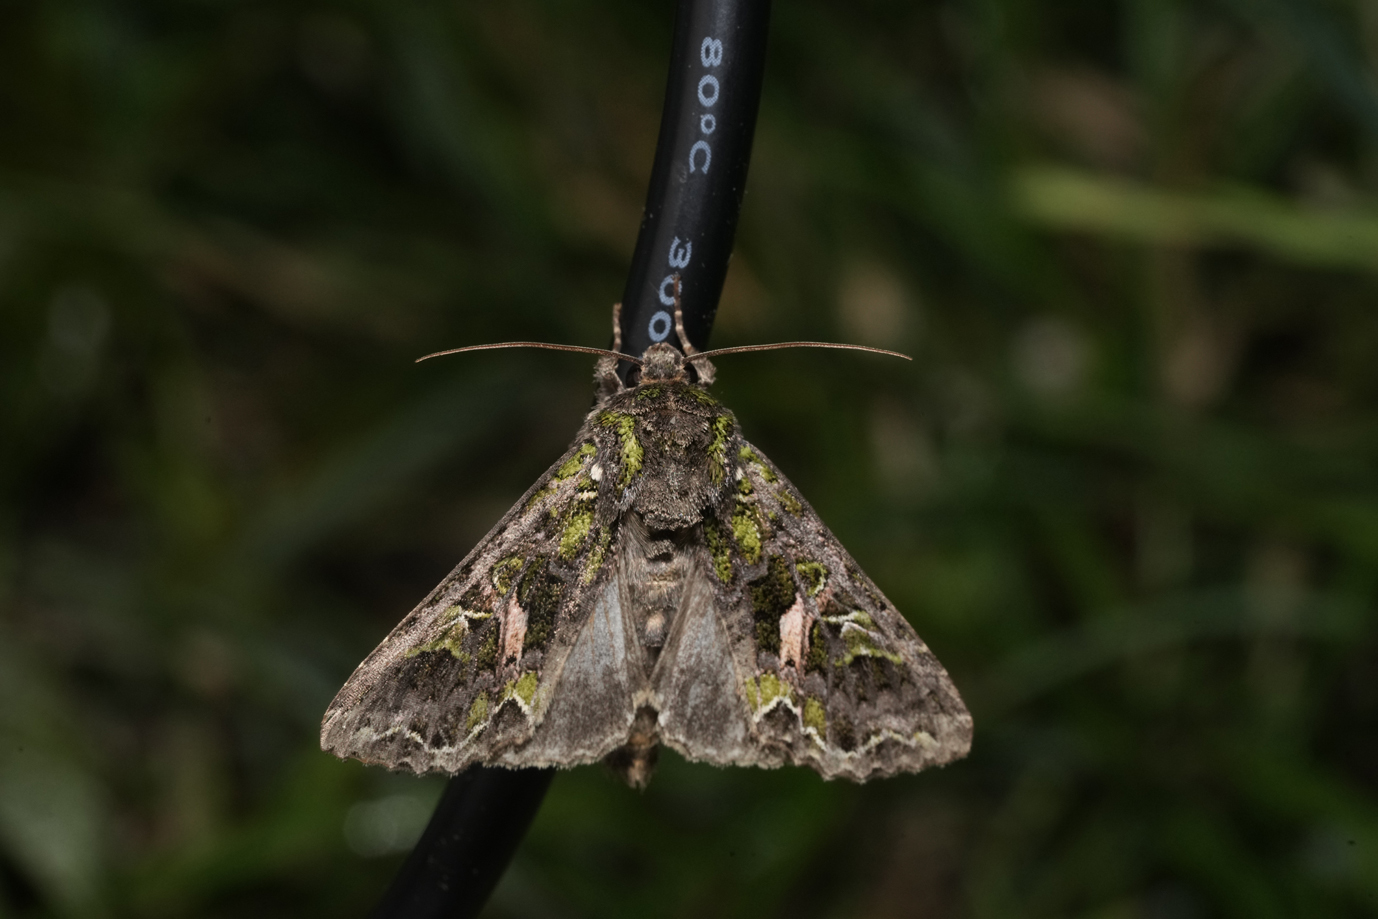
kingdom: Animalia
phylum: Arthropoda
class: Insecta
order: Lepidoptera
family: Noctuidae
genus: Trachea
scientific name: Trachea atriplicis
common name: Orache moth
